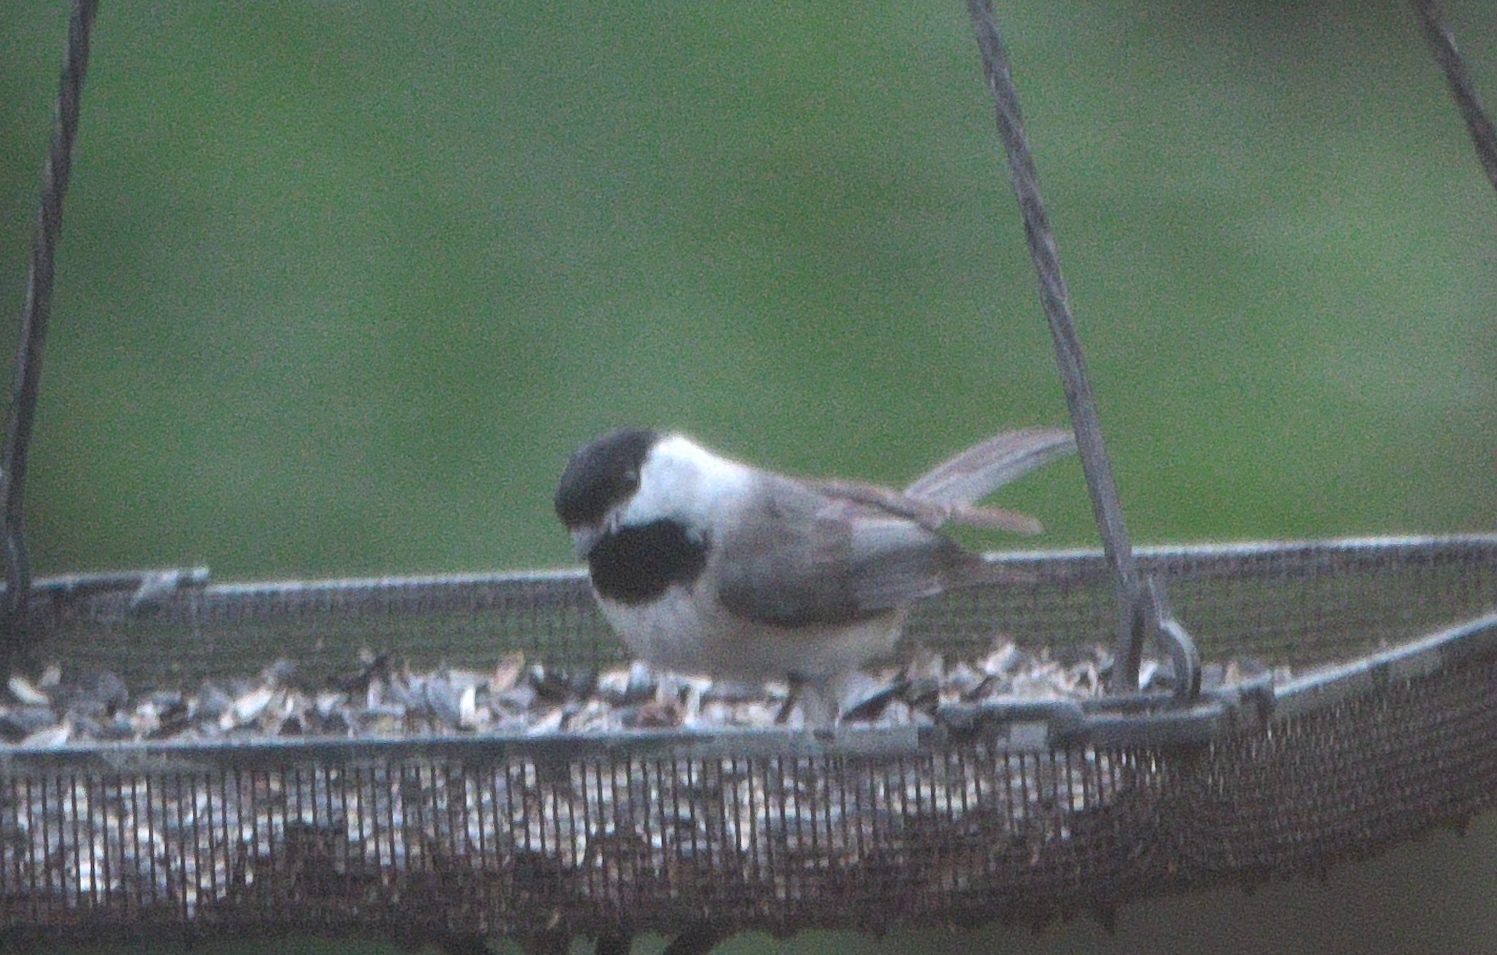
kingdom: Animalia
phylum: Chordata
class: Aves
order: Passeriformes
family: Paridae
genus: Poecile
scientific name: Poecile carolinensis
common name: Carolina chickadee
